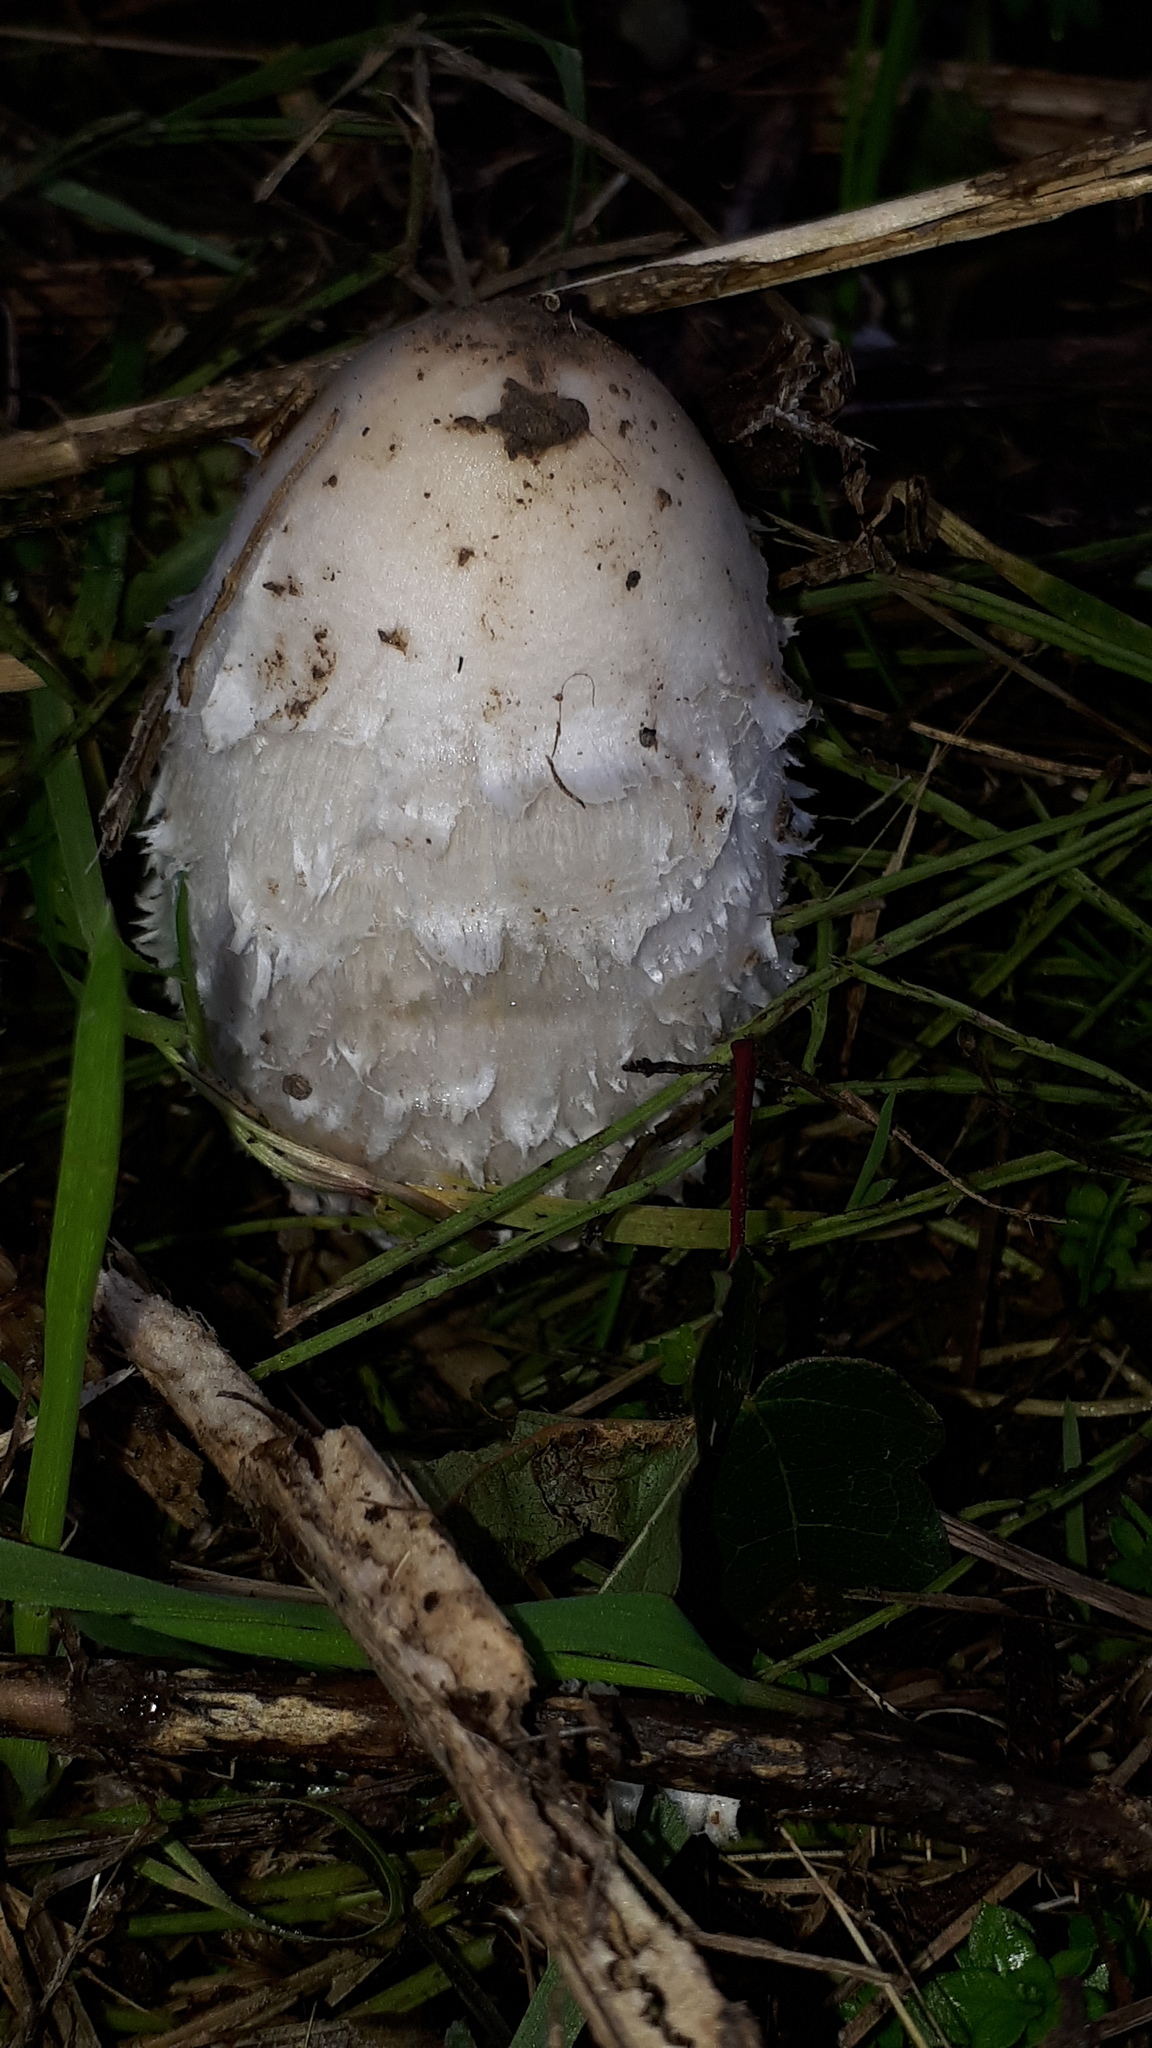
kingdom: Fungi
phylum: Basidiomycota
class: Agaricomycetes
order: Agaricales
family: Agaricaceae
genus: Coprinus
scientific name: Coprinus comatus
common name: Lawyer's wig
